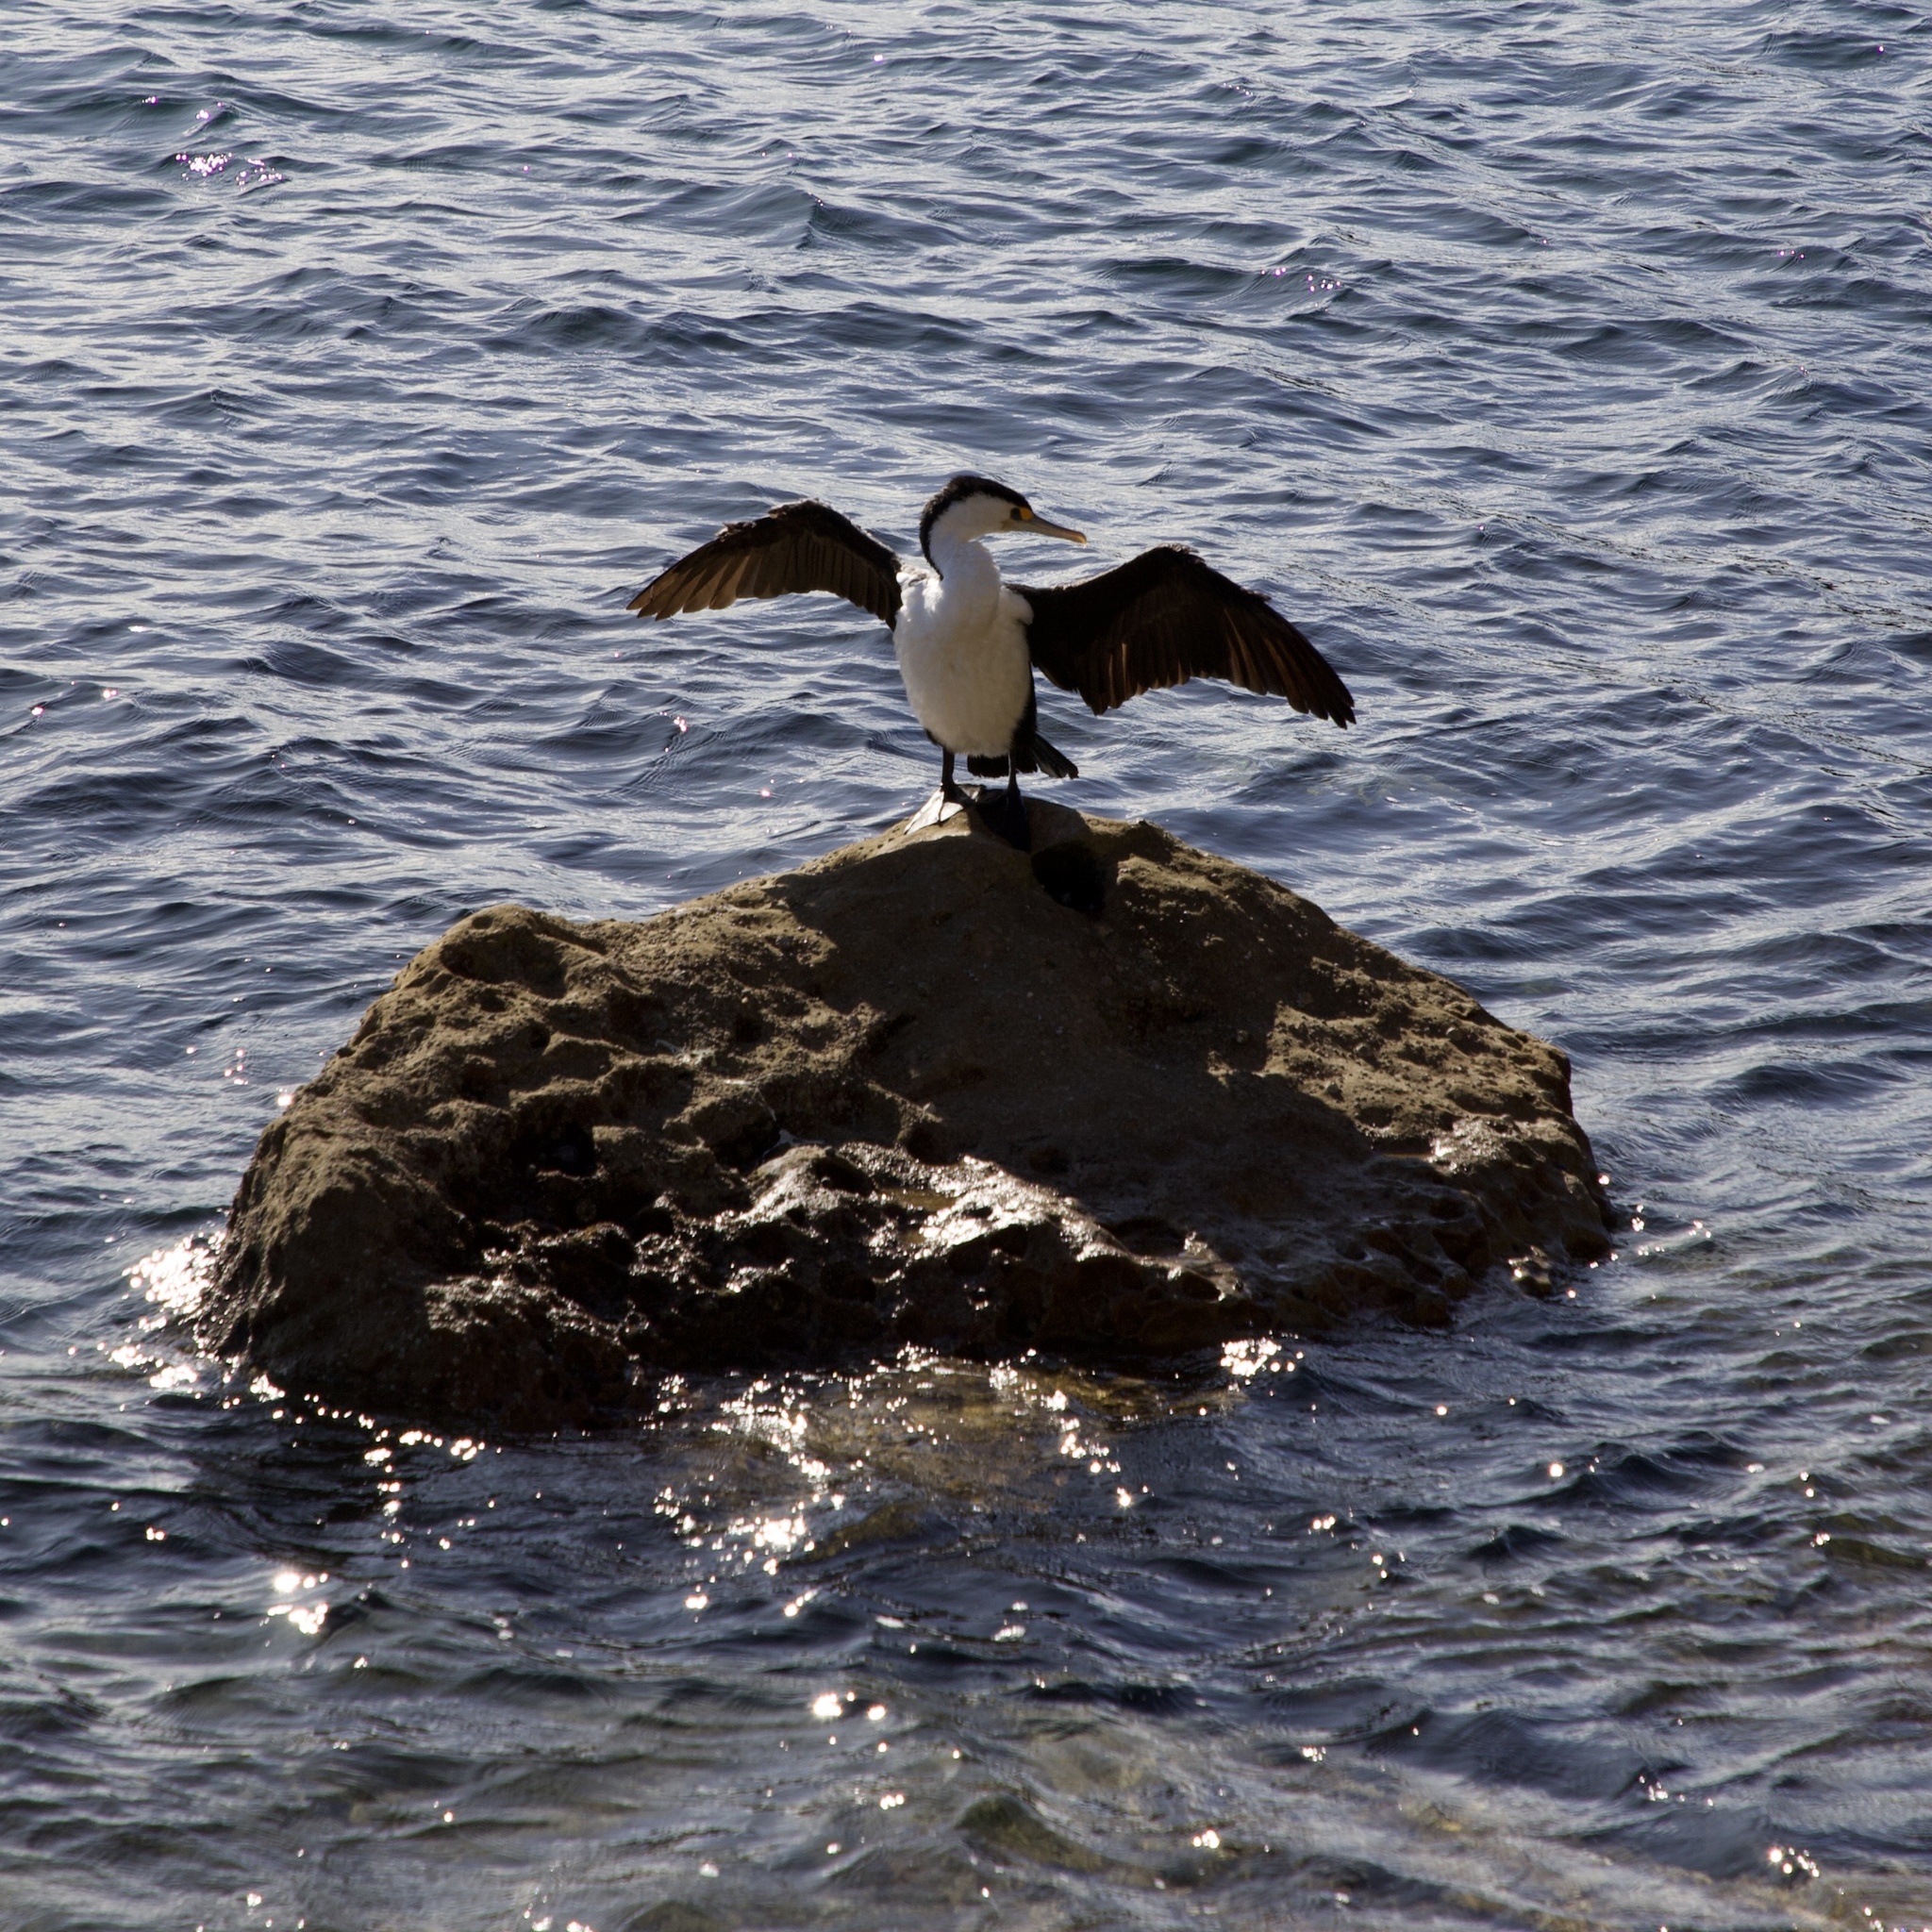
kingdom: Animalia
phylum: Chordata
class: Aves
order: Suliformes
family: Phalacrocoracidae
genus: Phalacrocorax
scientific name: Phalacrocorax varius
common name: Pied cormorant
